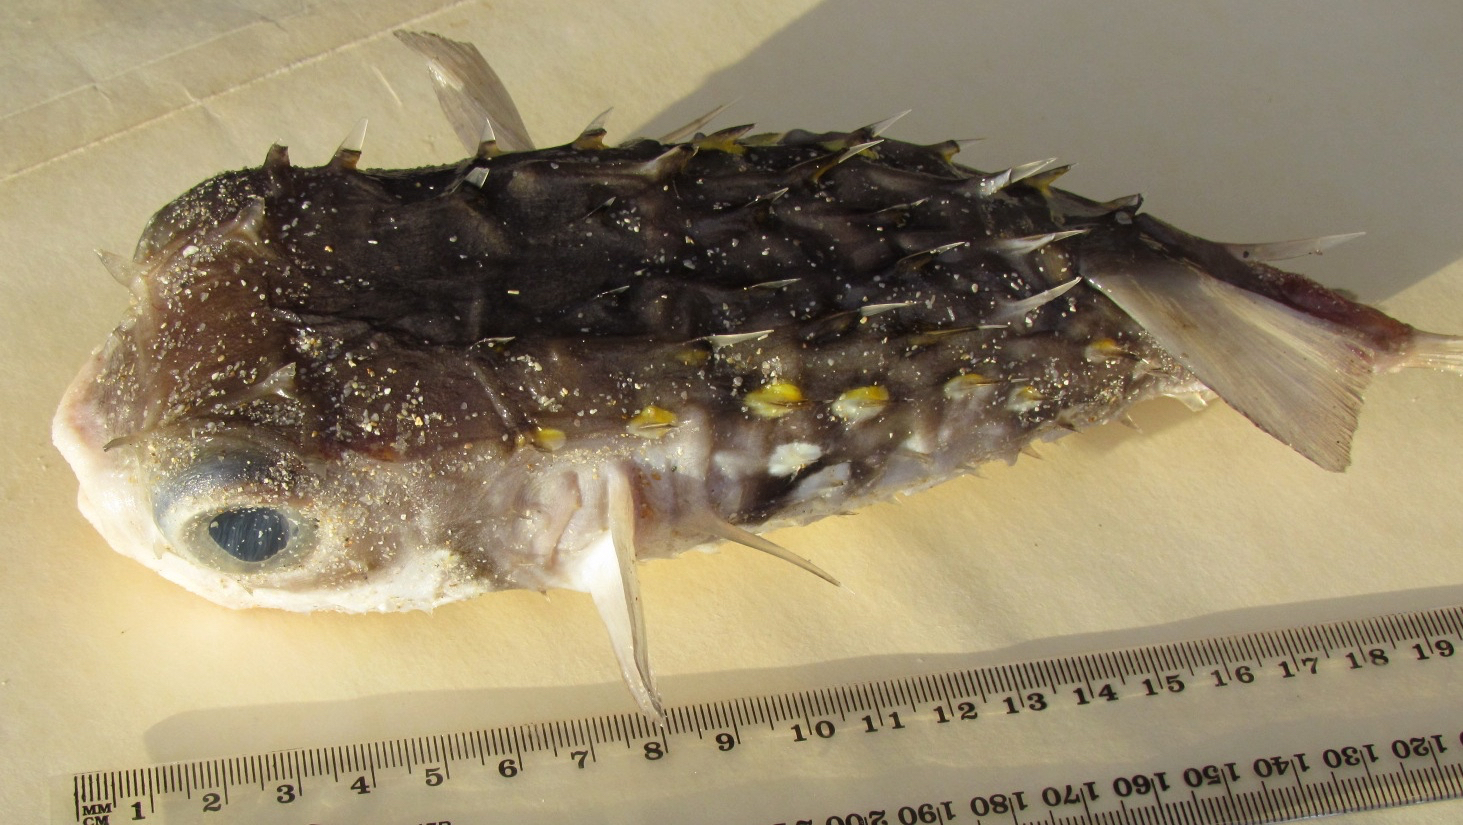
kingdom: Animalia
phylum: Chordata
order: Tetraodontiformes
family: Diodontidae
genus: Allomycterus
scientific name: Allomycterus pilatus
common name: No common name
